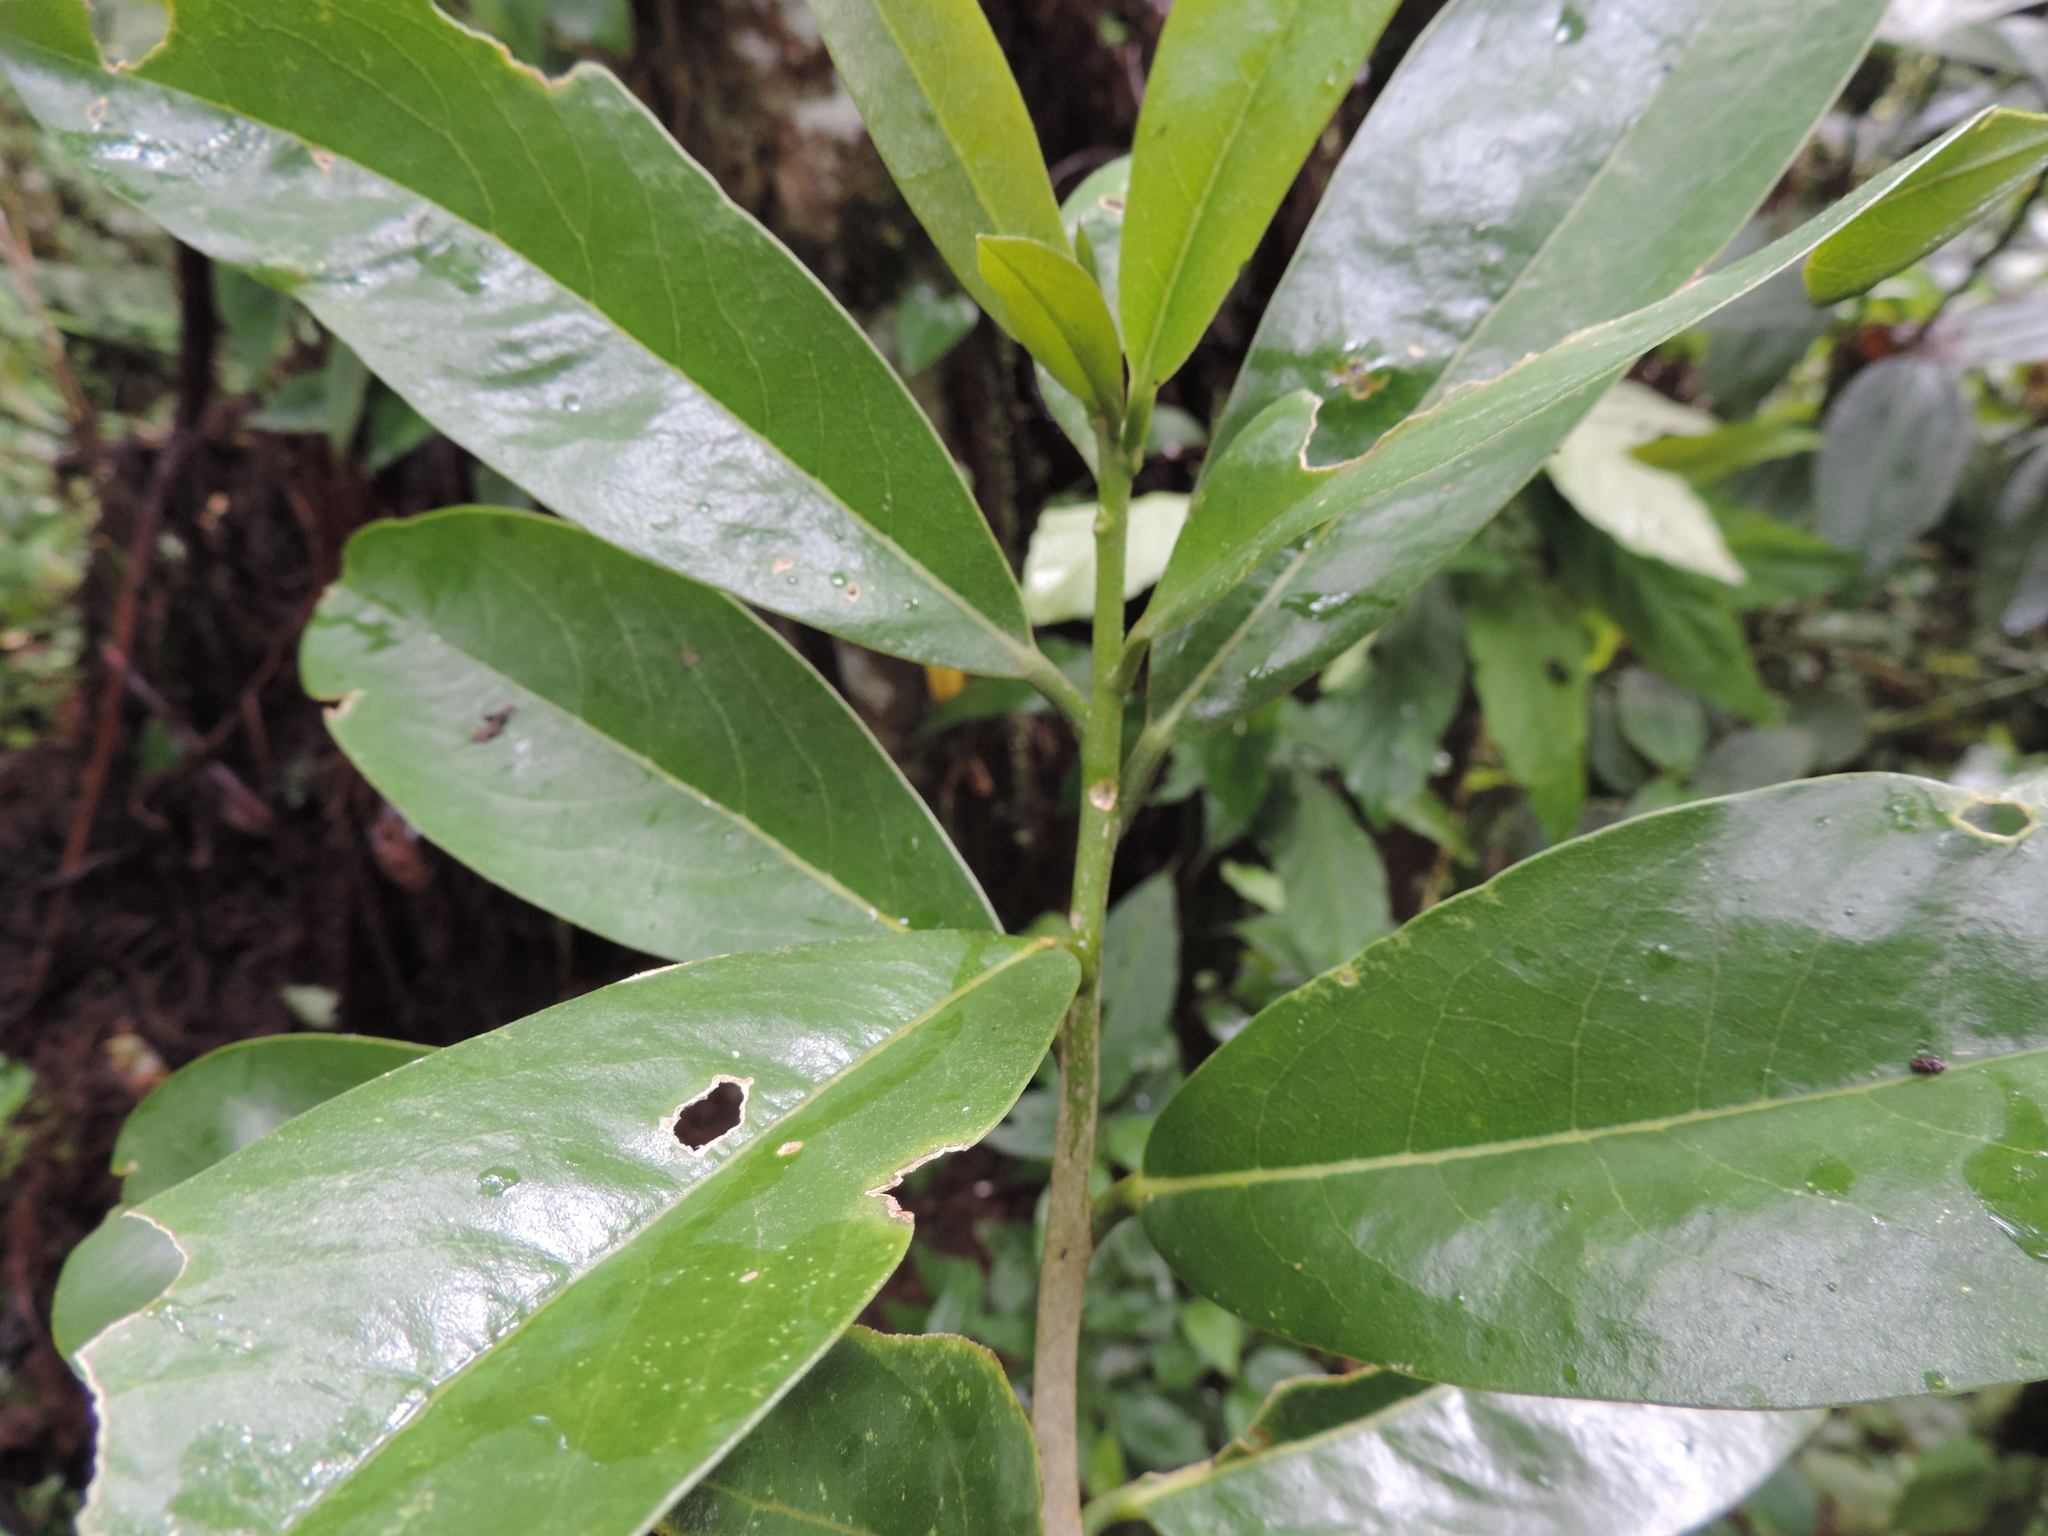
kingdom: Plantae
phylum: Tracheophyta
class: Magnoliopsida
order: Ericales
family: Primulaceae
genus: Myrsine
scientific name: Myrsine guianensis
